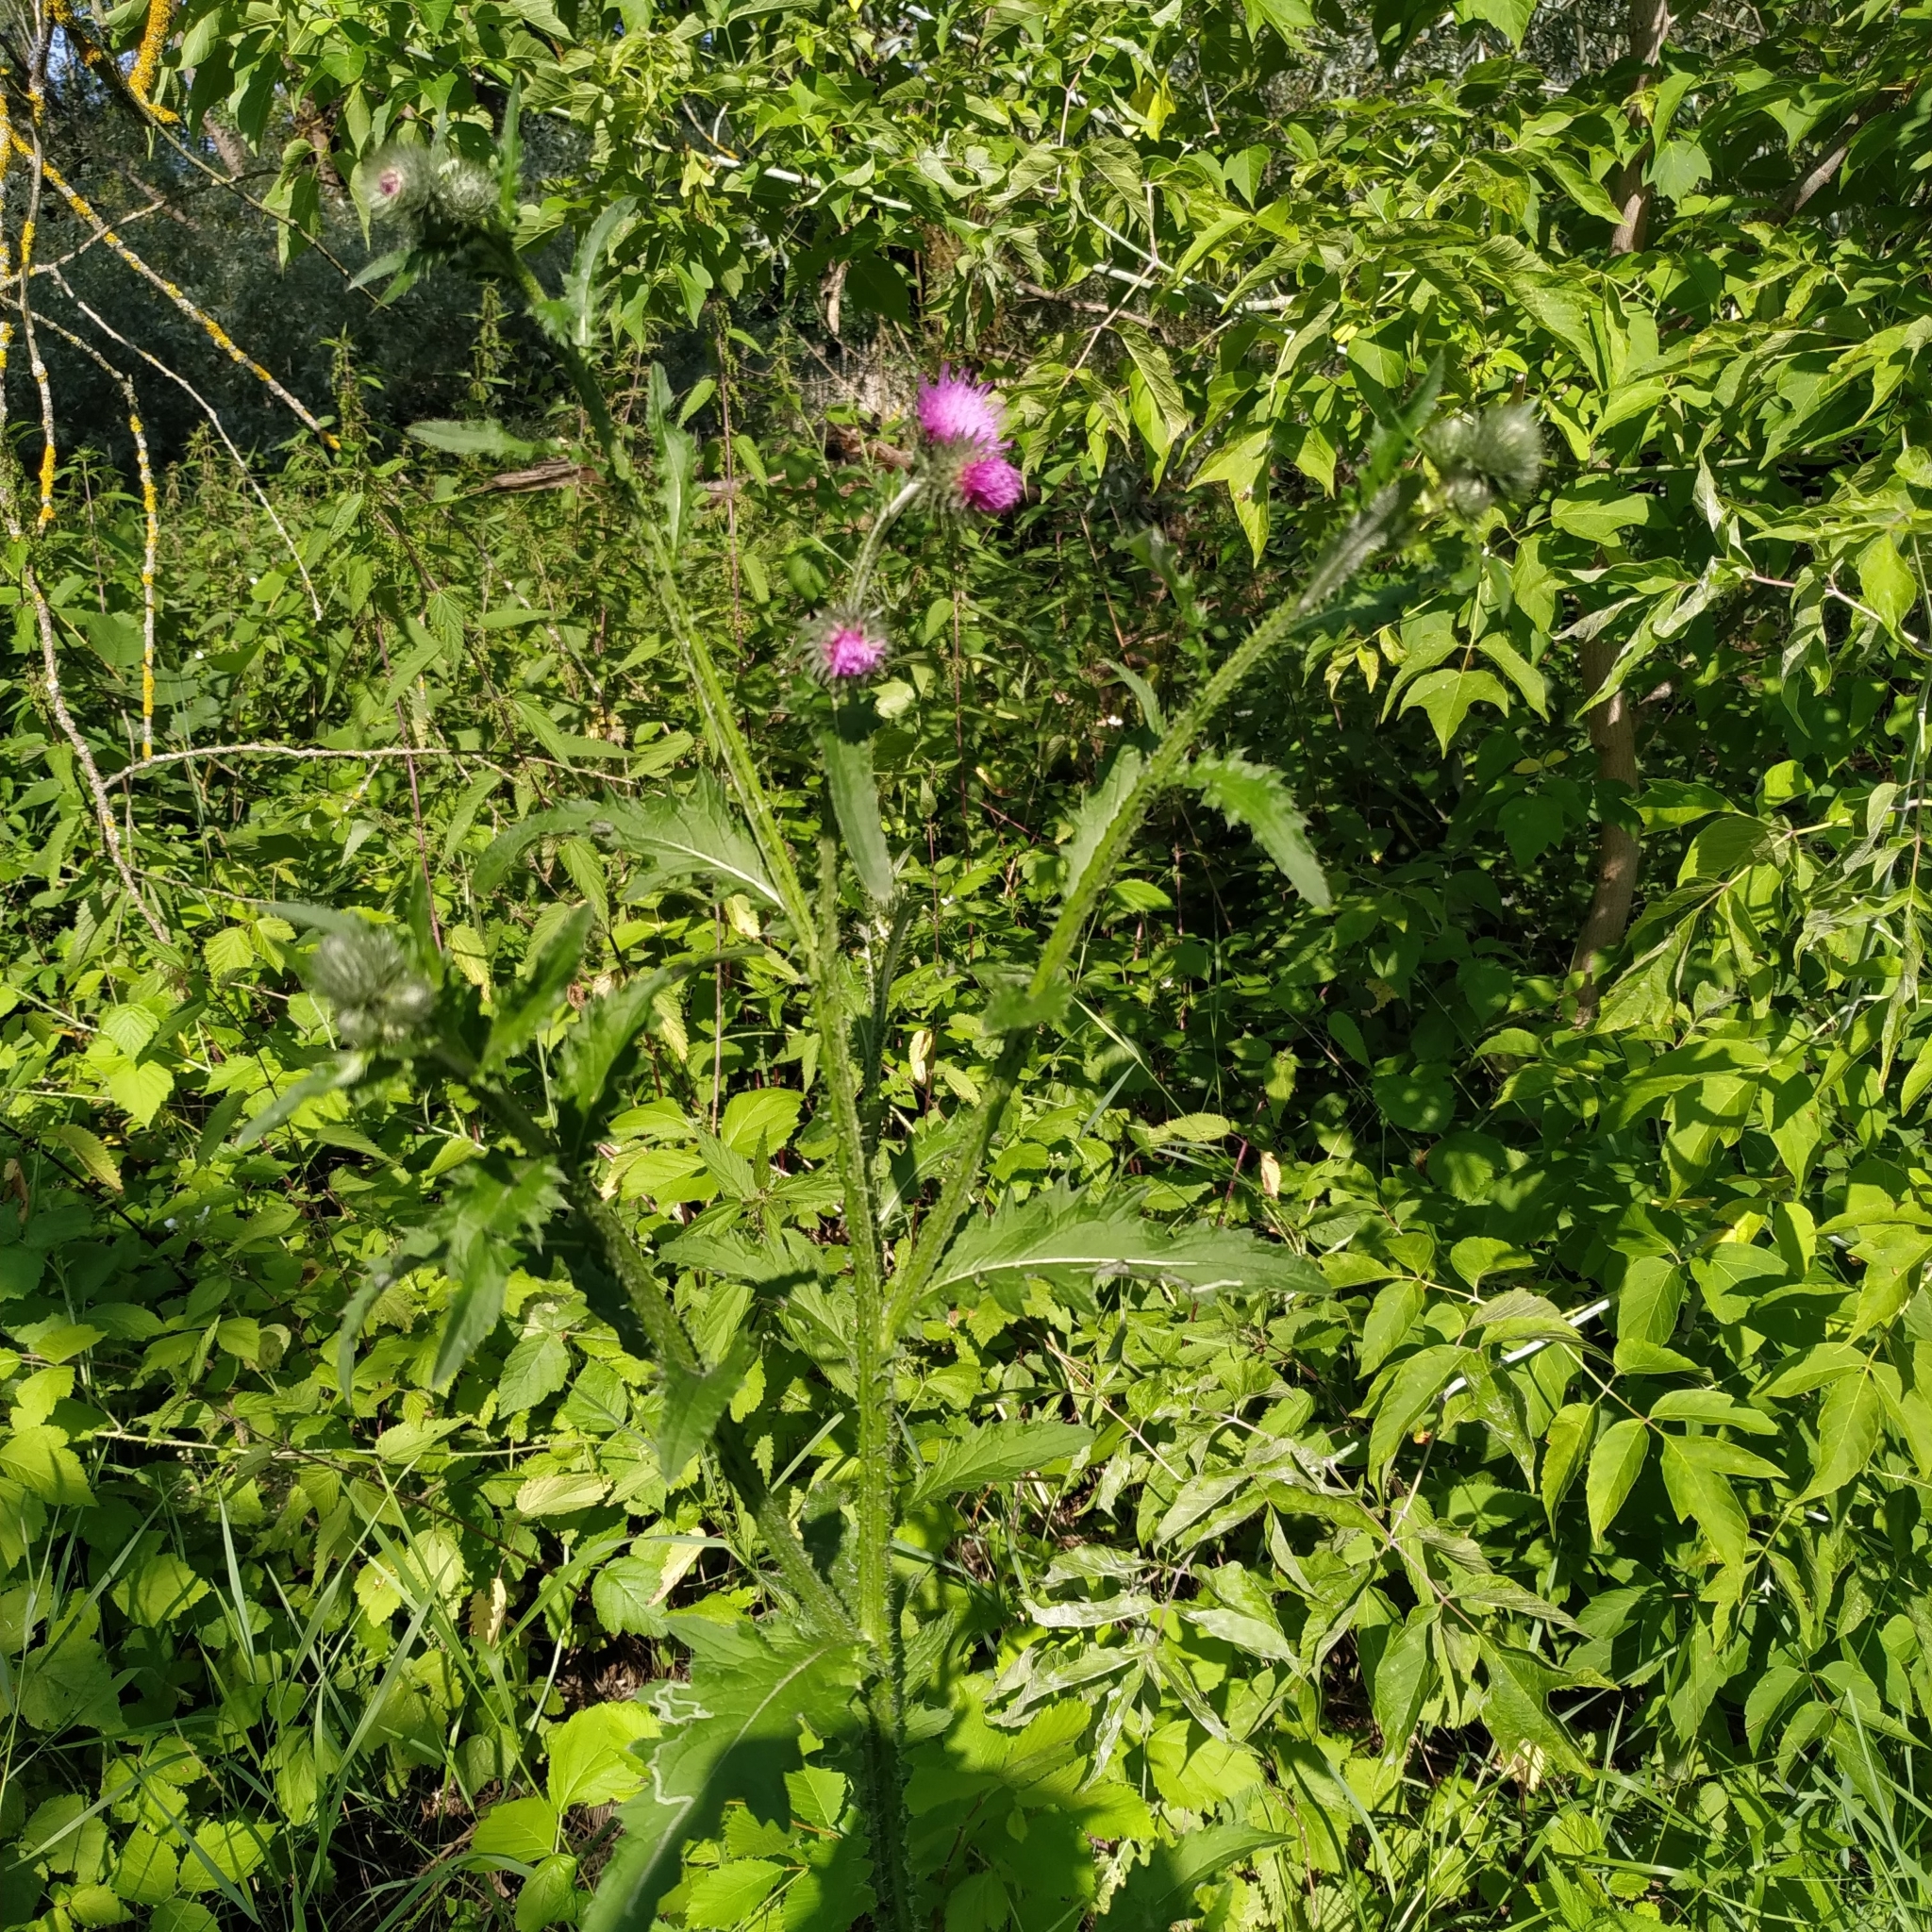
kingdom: Plantae
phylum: Tracheophyta
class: Magnoliopsida
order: Asterales
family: Asteraceae
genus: Carduus
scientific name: Carduus crispus
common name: Welted thistle
